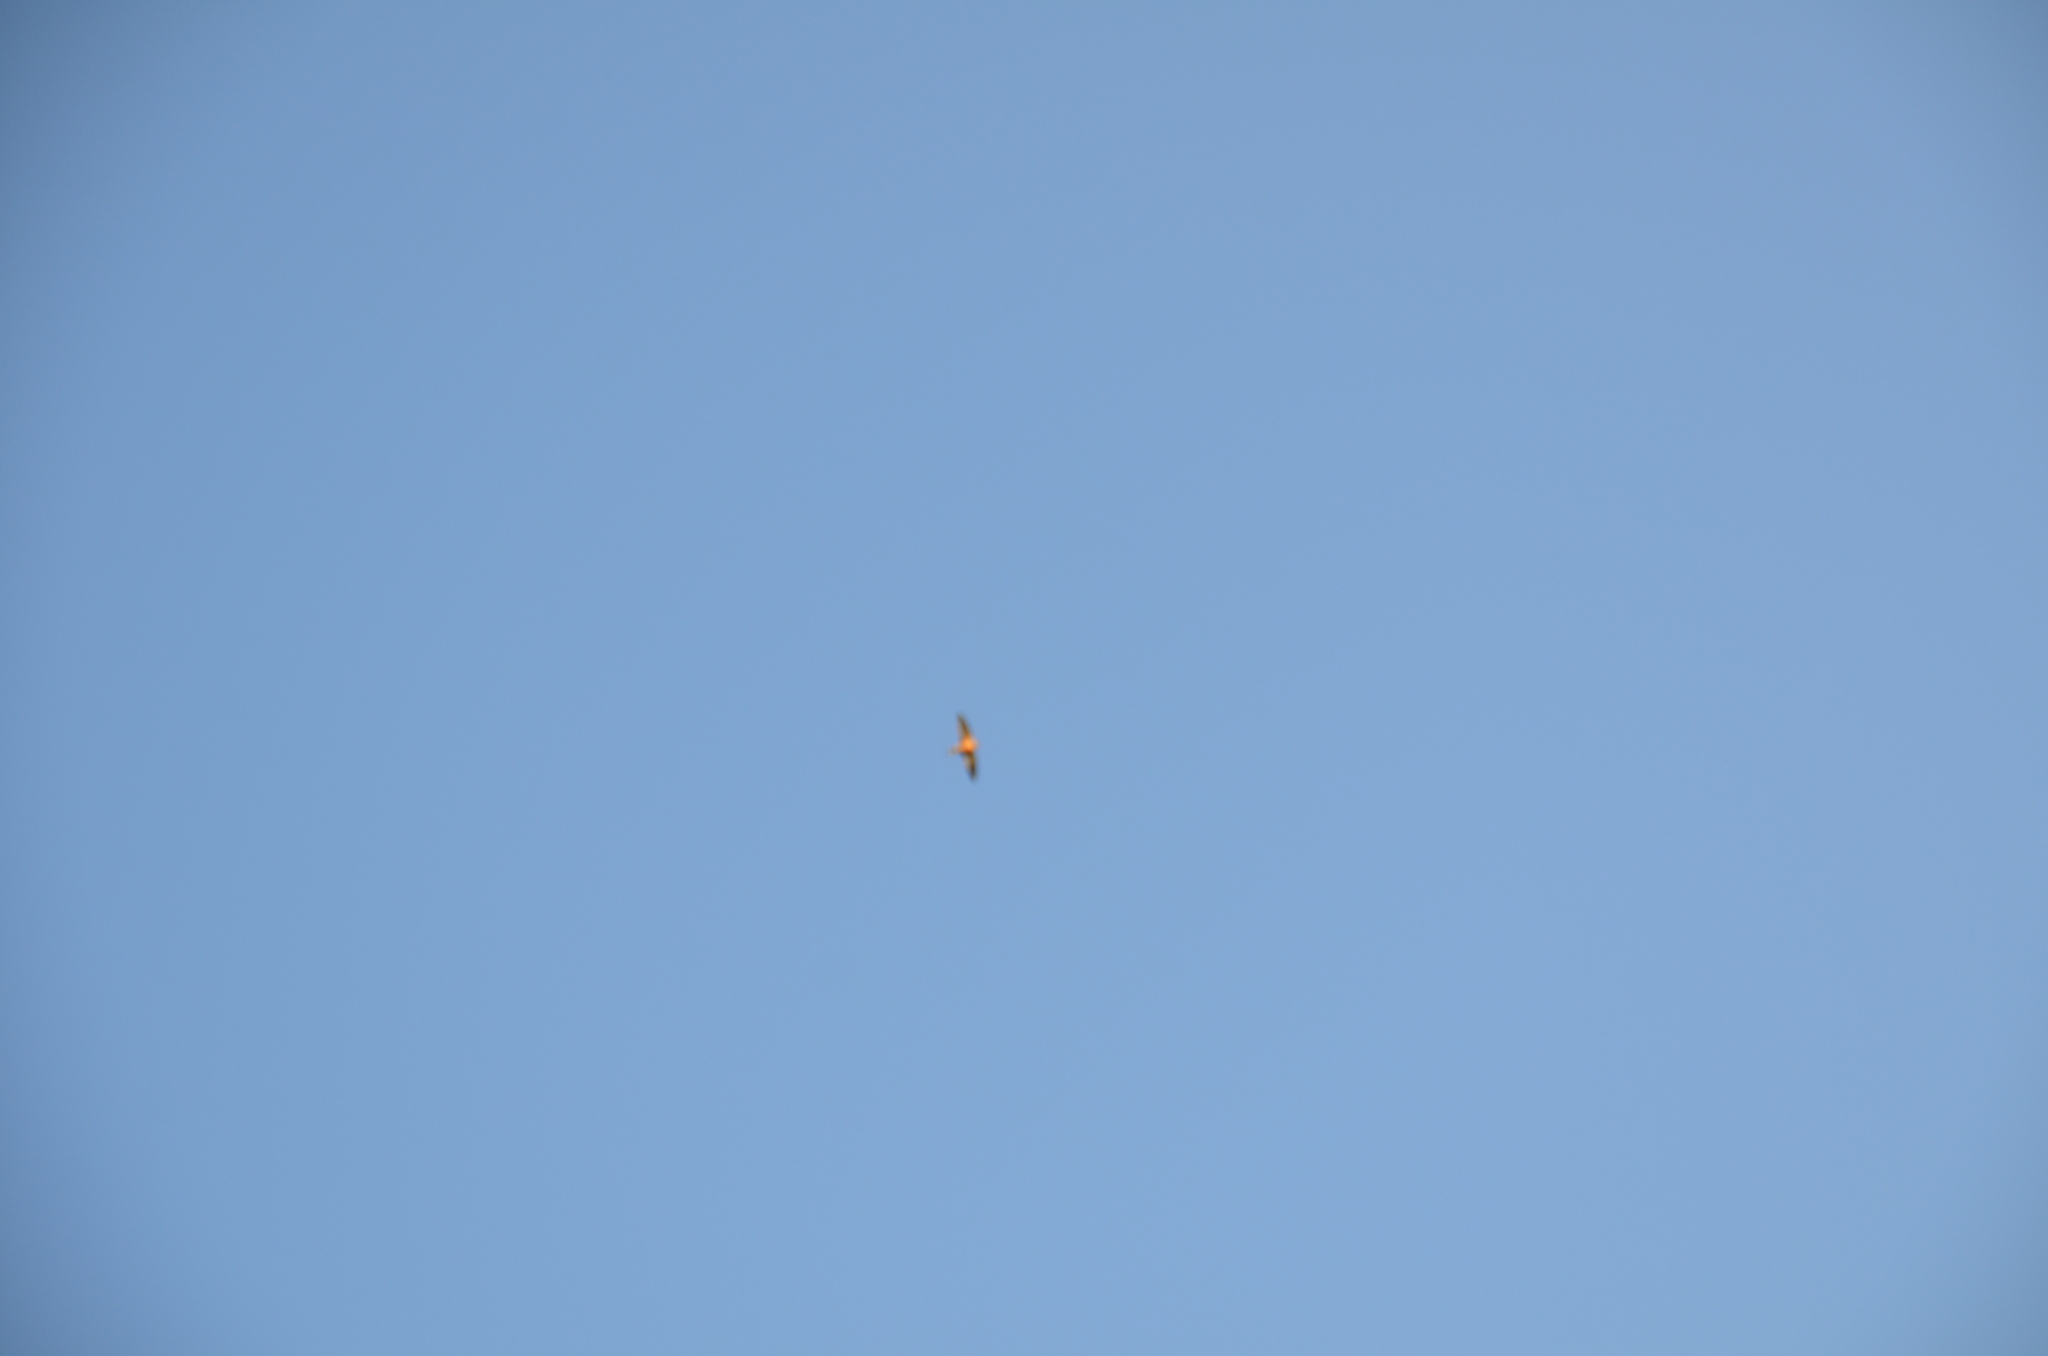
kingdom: Animalia
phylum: Chordata
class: Aves
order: Passeriformes
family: Hirundinidae
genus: Hirundo
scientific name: Hirundo rustica
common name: Barn swallow
